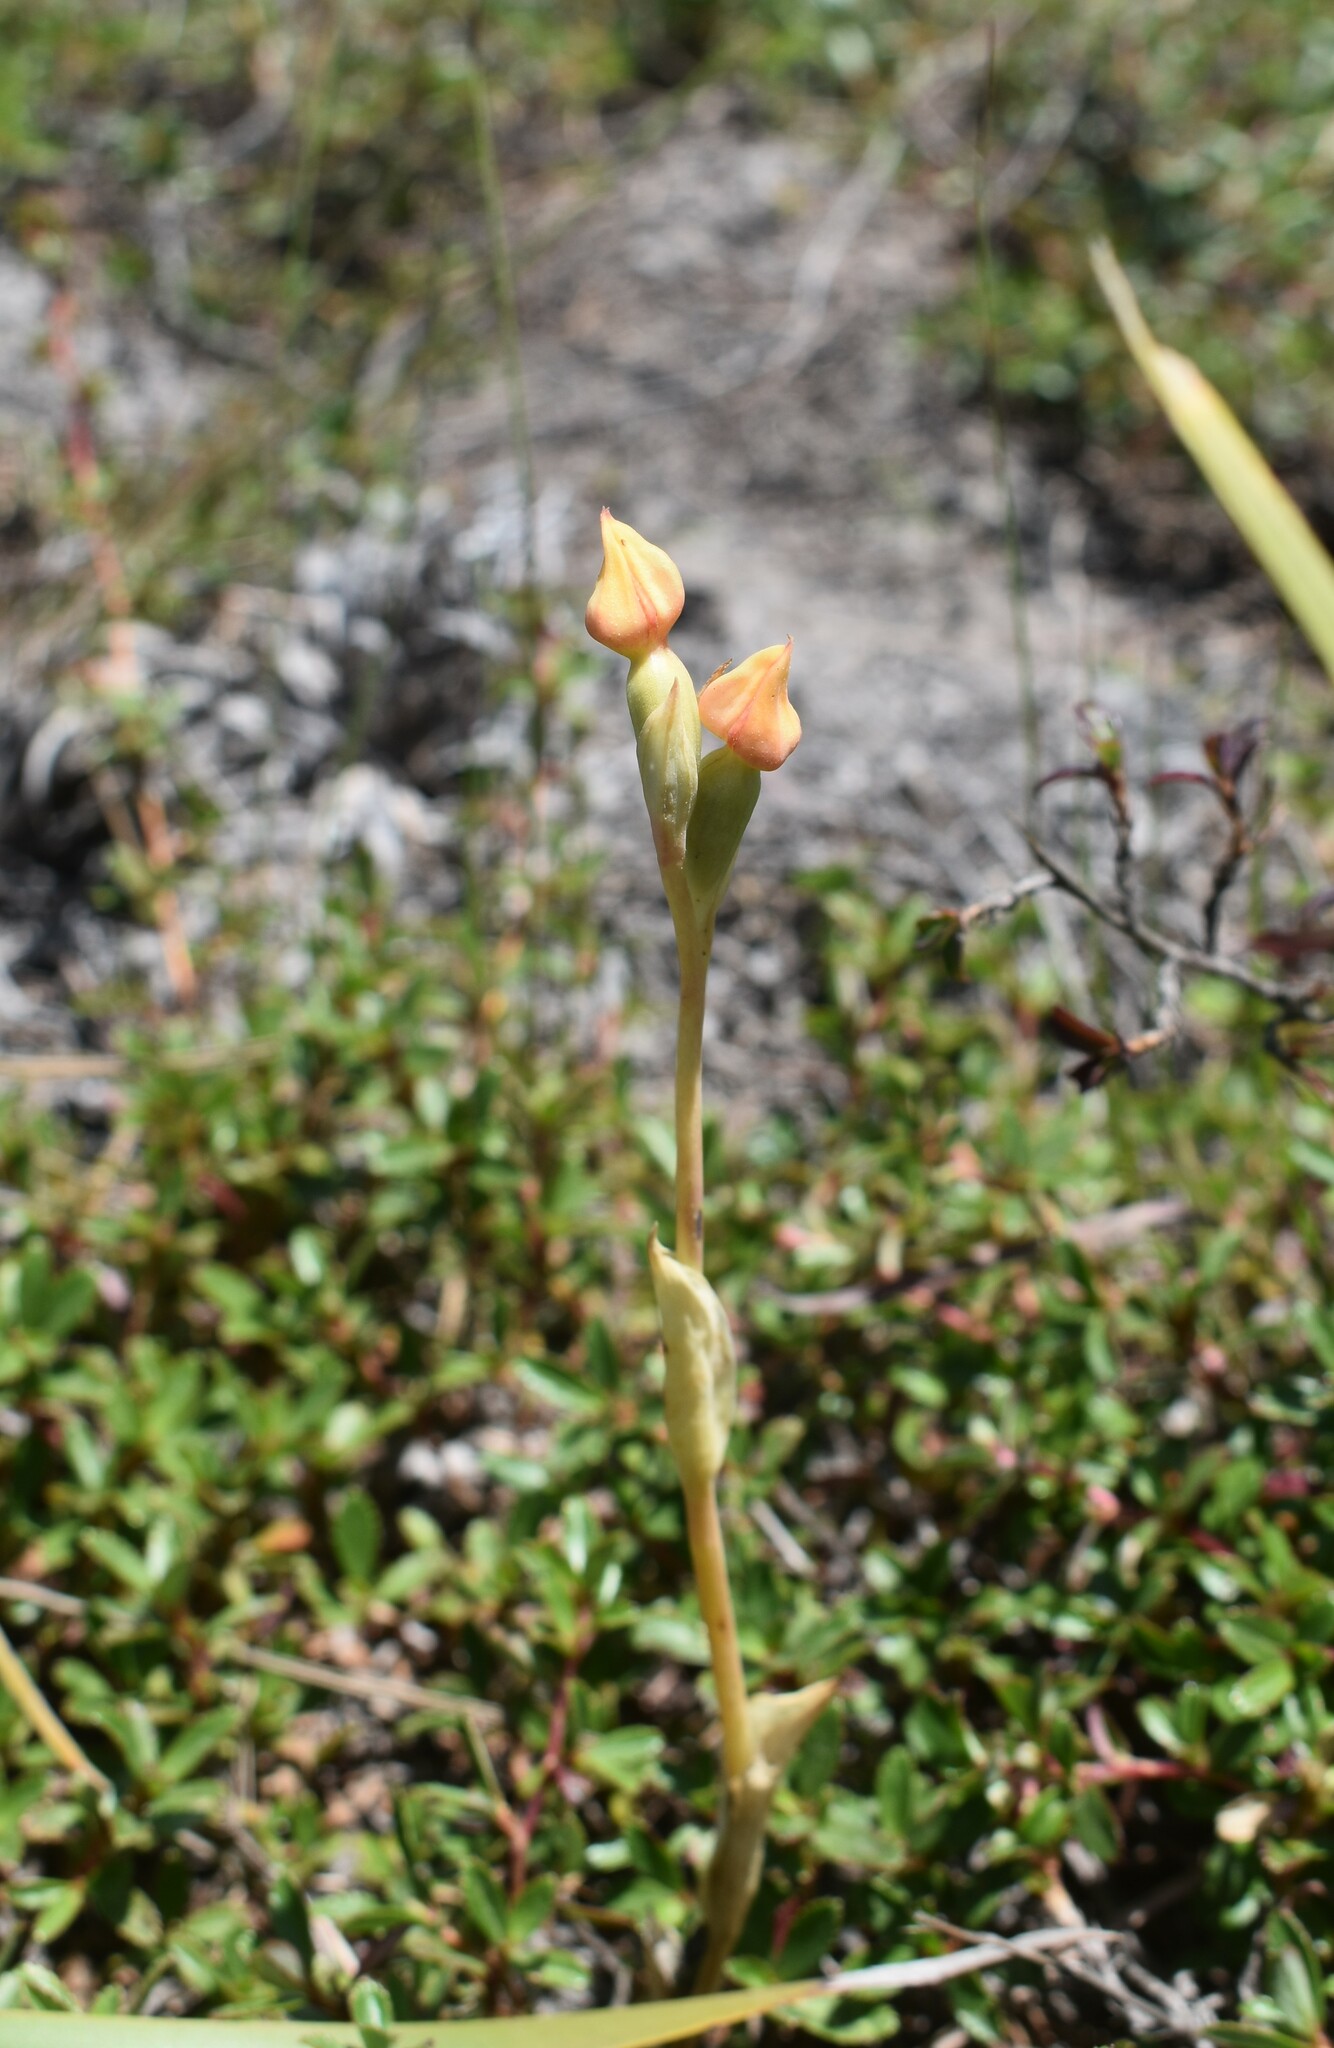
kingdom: Plantae
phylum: Tracheophyta
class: Liliopsida
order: Asparagales
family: Orchidaceae
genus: Pterygodium
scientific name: Pterygodium cleistogamum
